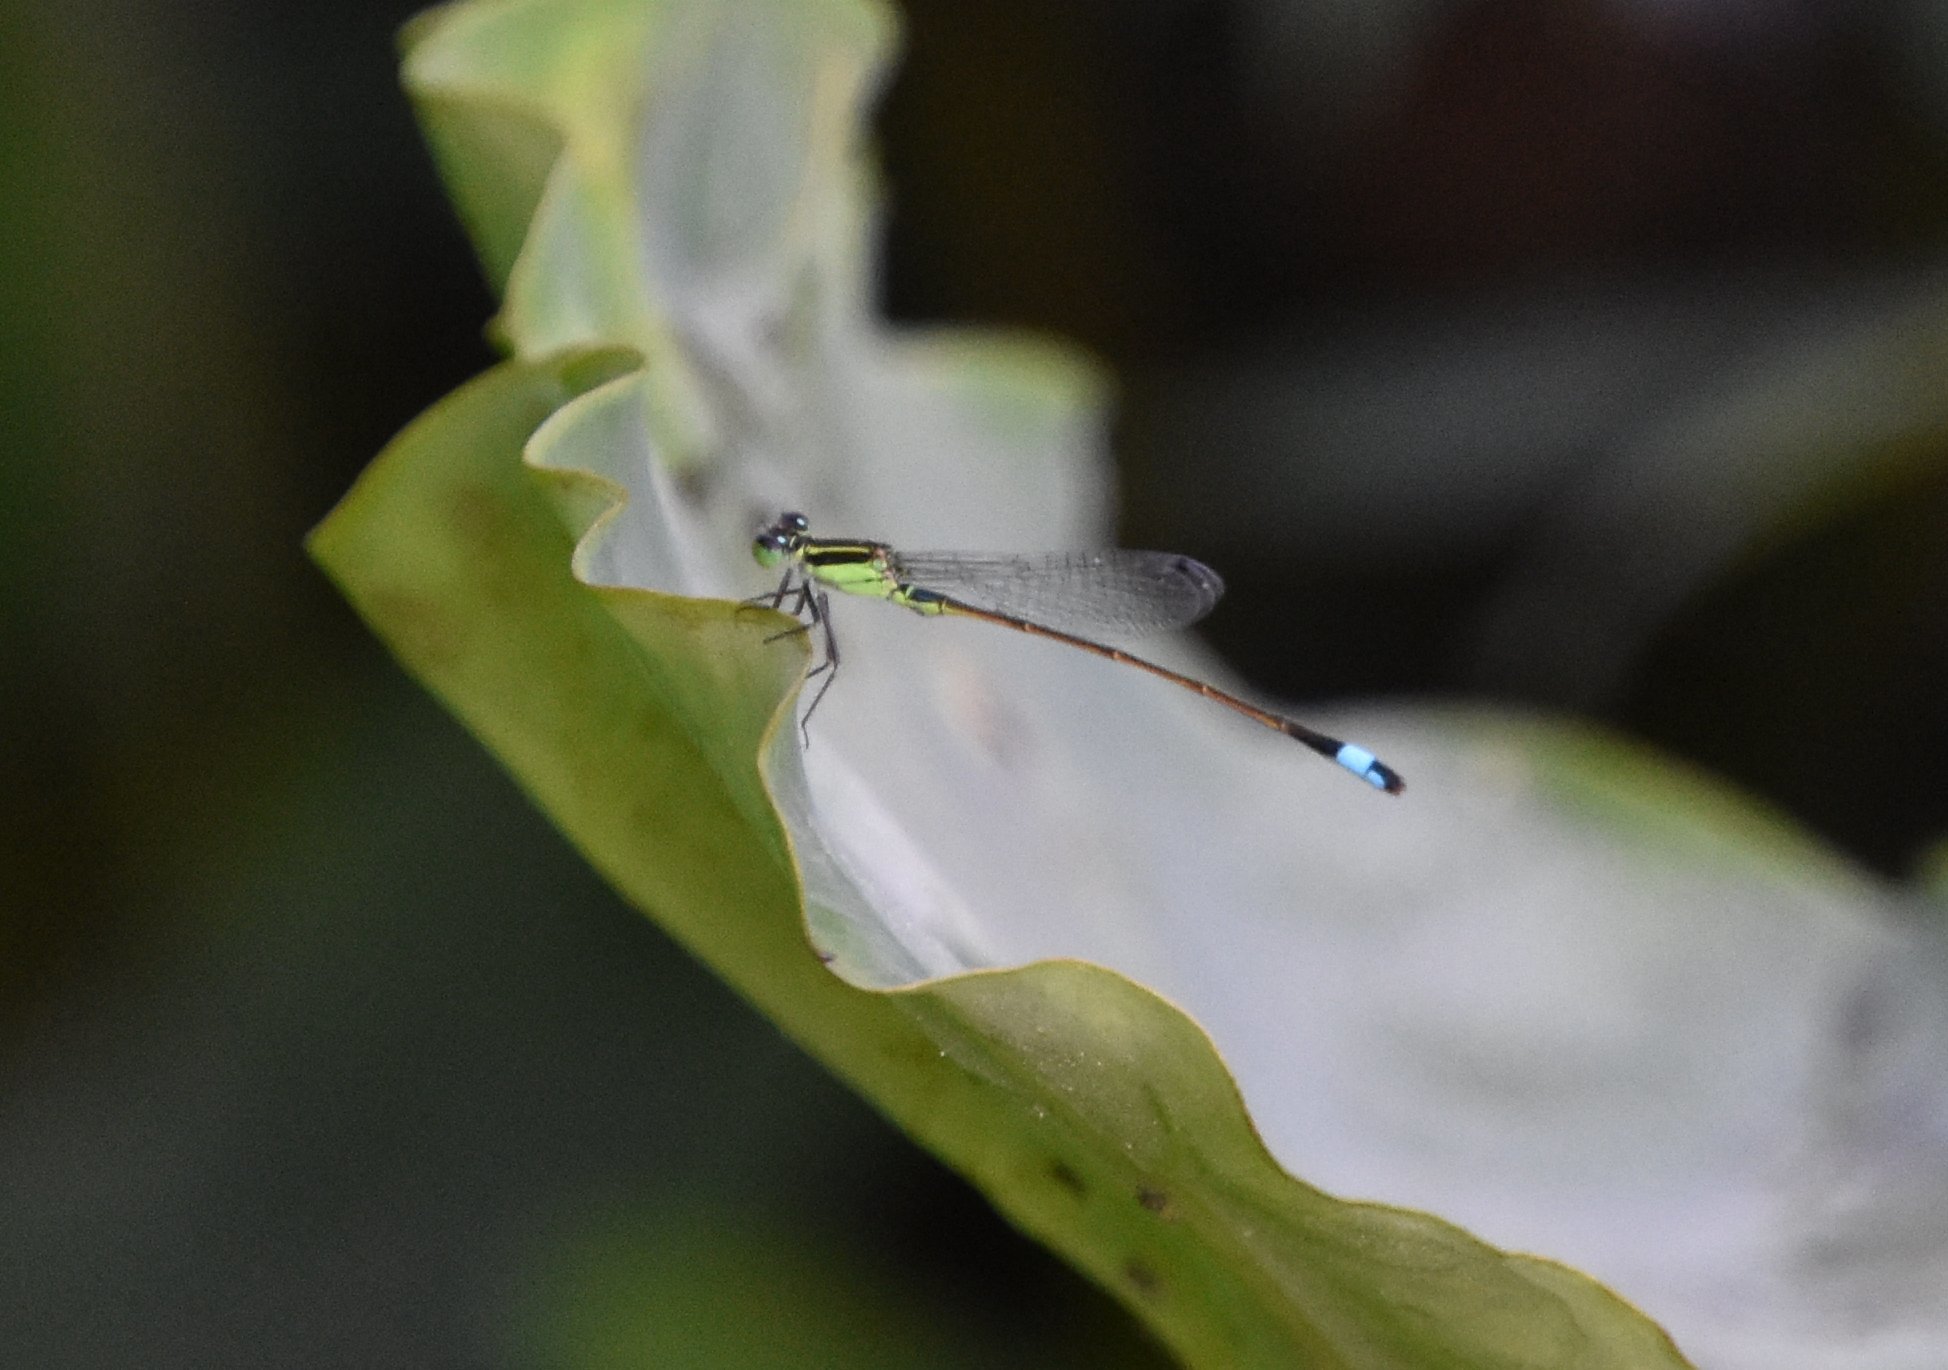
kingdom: Animalia
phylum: Arthropoda
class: Insecta
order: Odonata
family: Coenagrionidae
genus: Ischnura
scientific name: Ischnura ramburii
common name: Rambur's forktail
